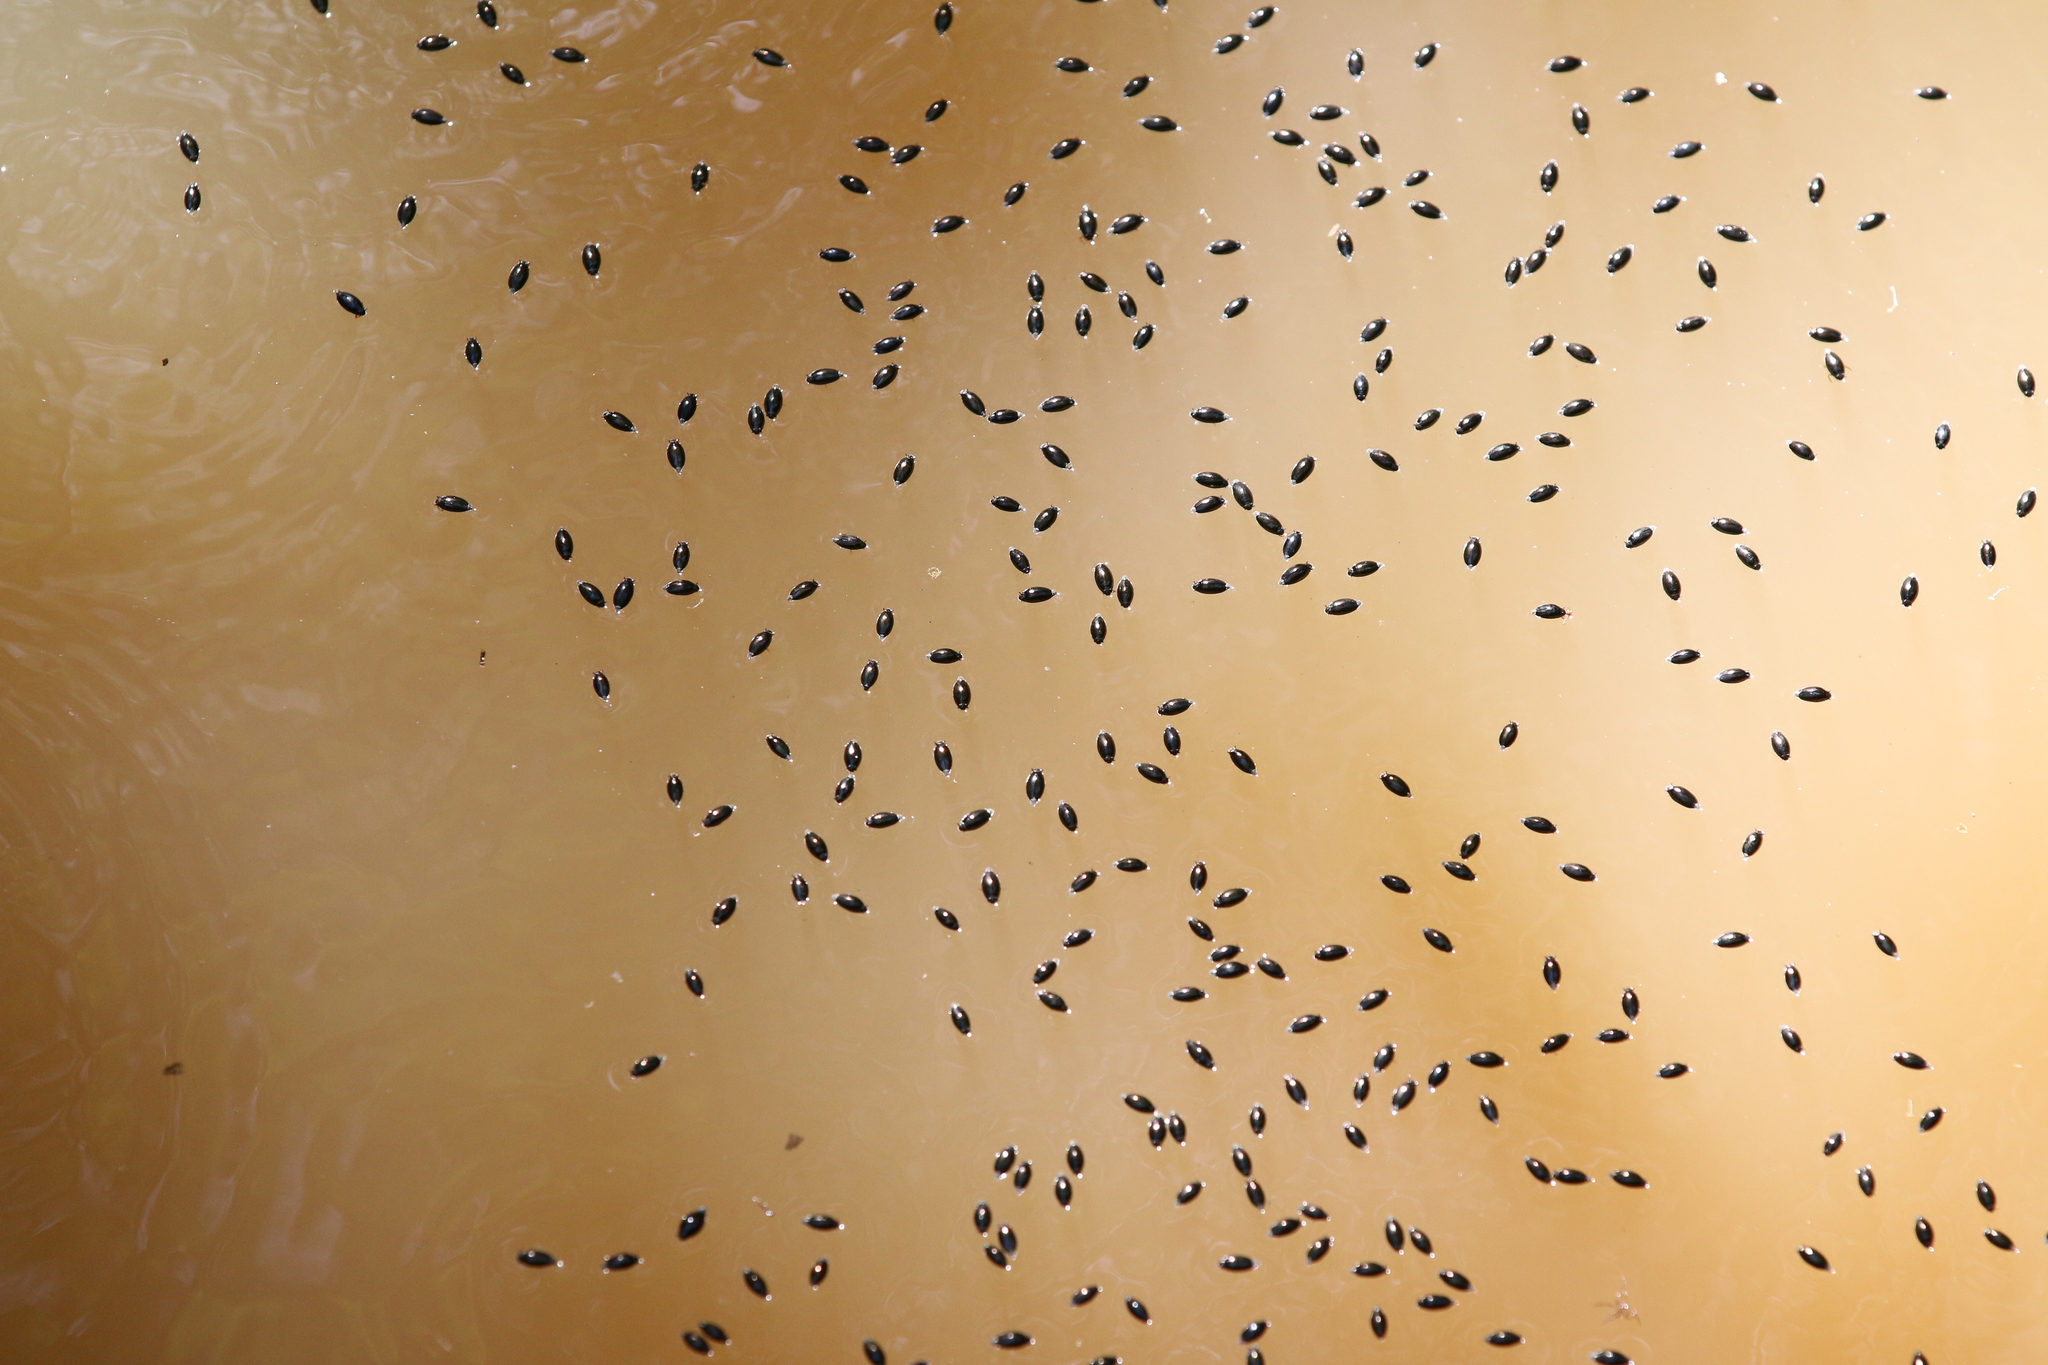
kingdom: Animalia
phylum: Arthropoda
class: Insecta
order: Coleoptera
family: Gyrinidae
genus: Gyrinus
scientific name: Gyrinus
